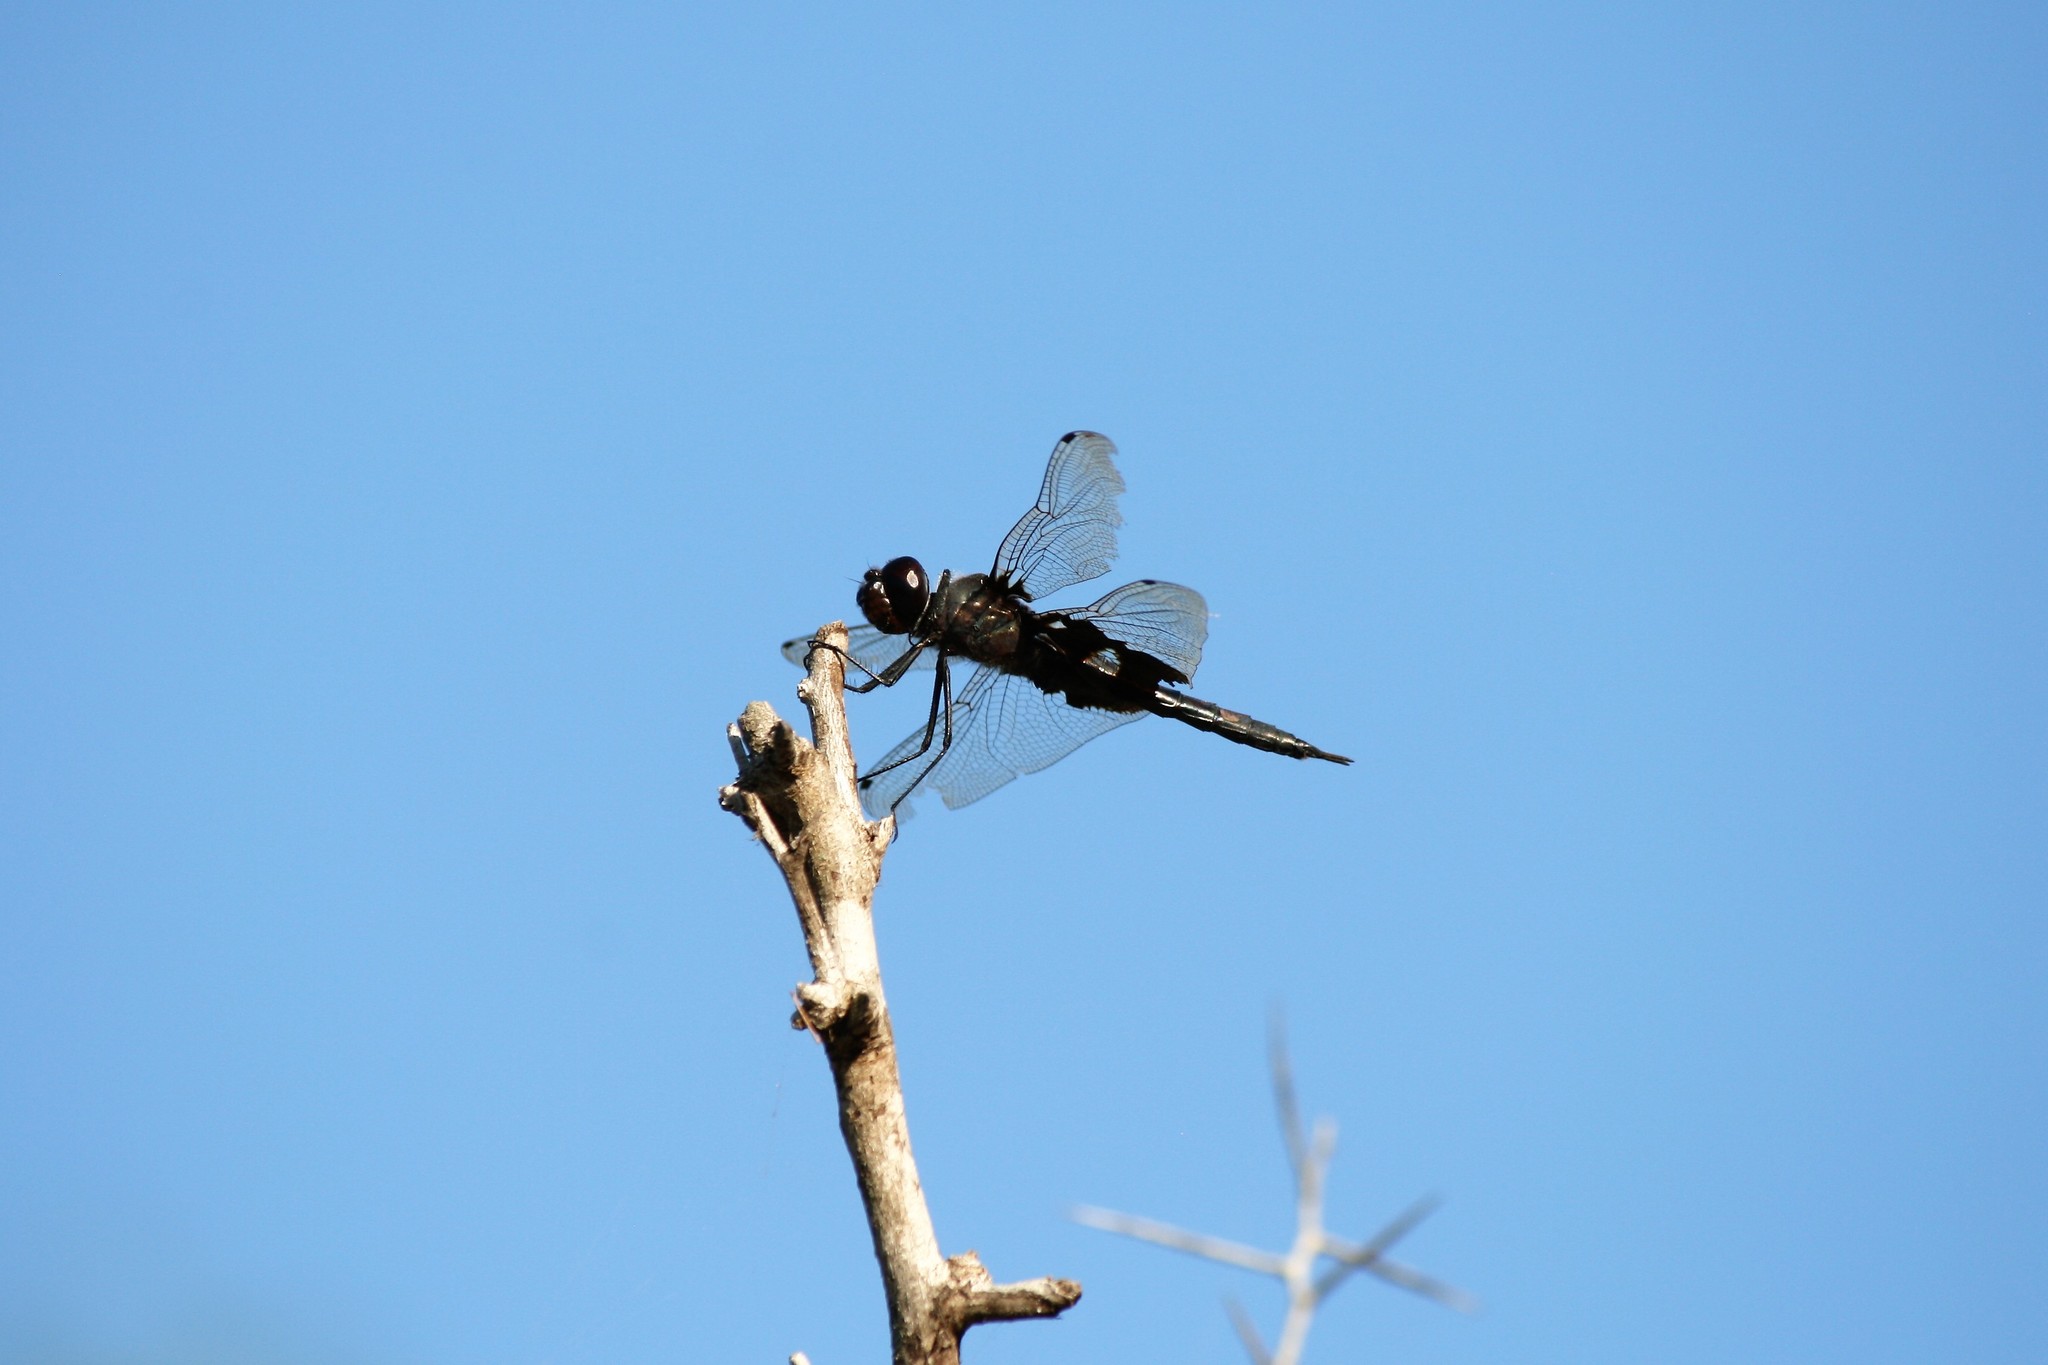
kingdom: Animalia
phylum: Arthropoda
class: Insecta
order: Odonata
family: Libellulidae
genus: Tramea
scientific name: Tramea lacerata
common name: Black saddlebags
